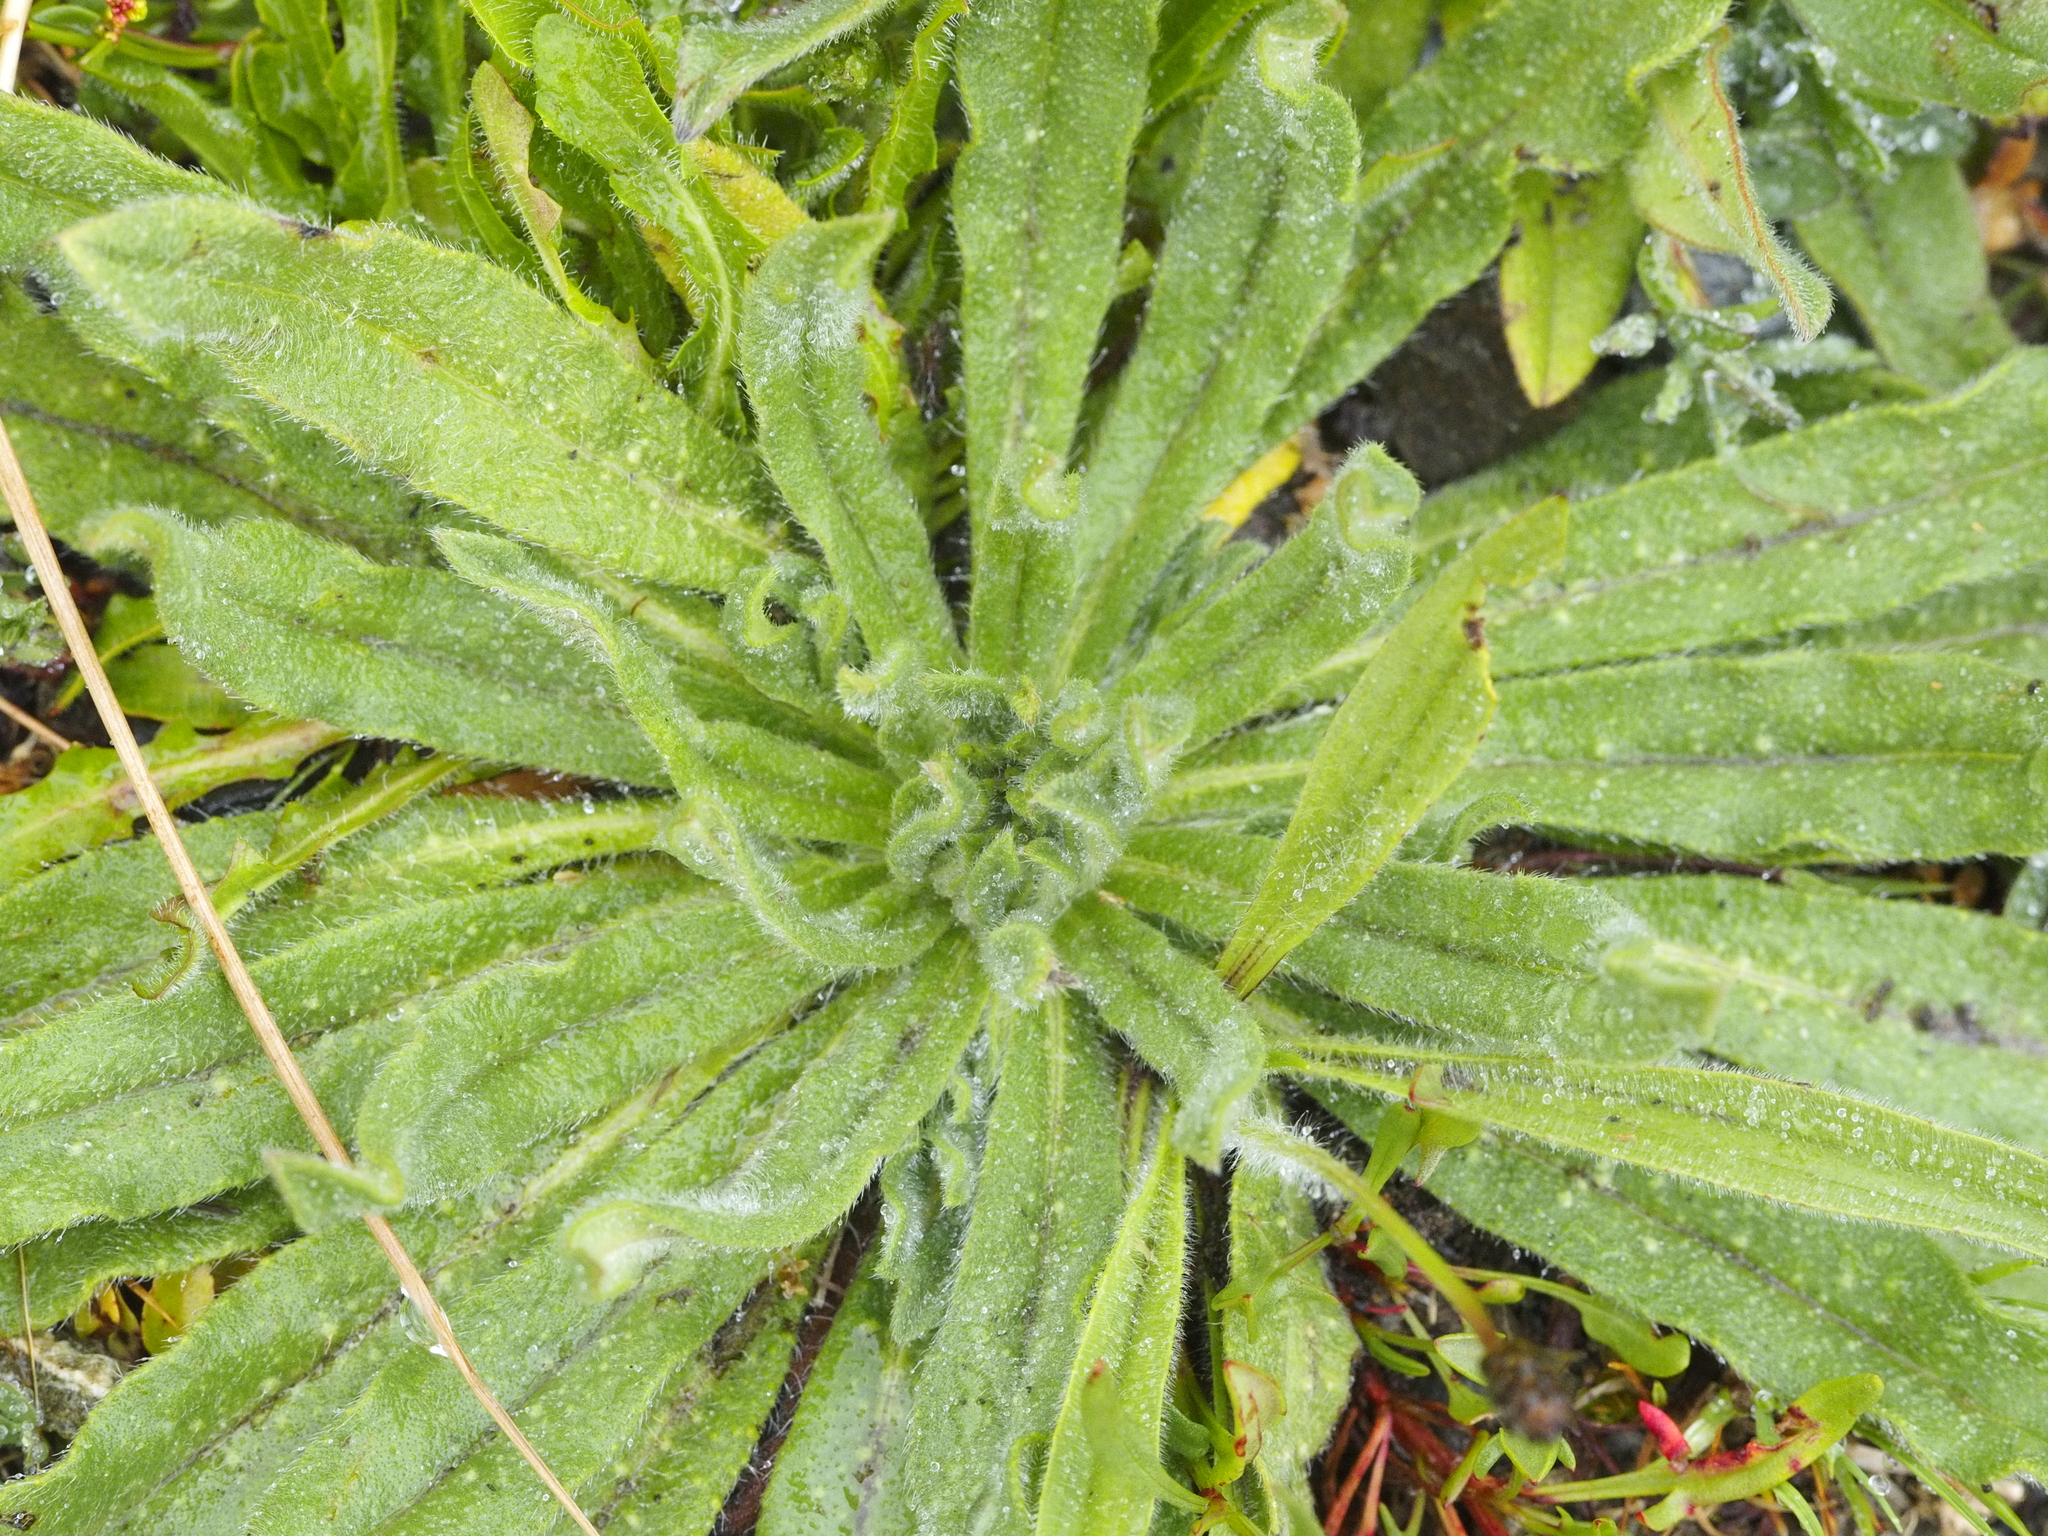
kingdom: Plantae
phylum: Tracheophyta
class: Magnoliopsida
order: Boraginales
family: Boraginaceae
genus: Echium
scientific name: Echium vulgare
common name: Common viper's bugloss
